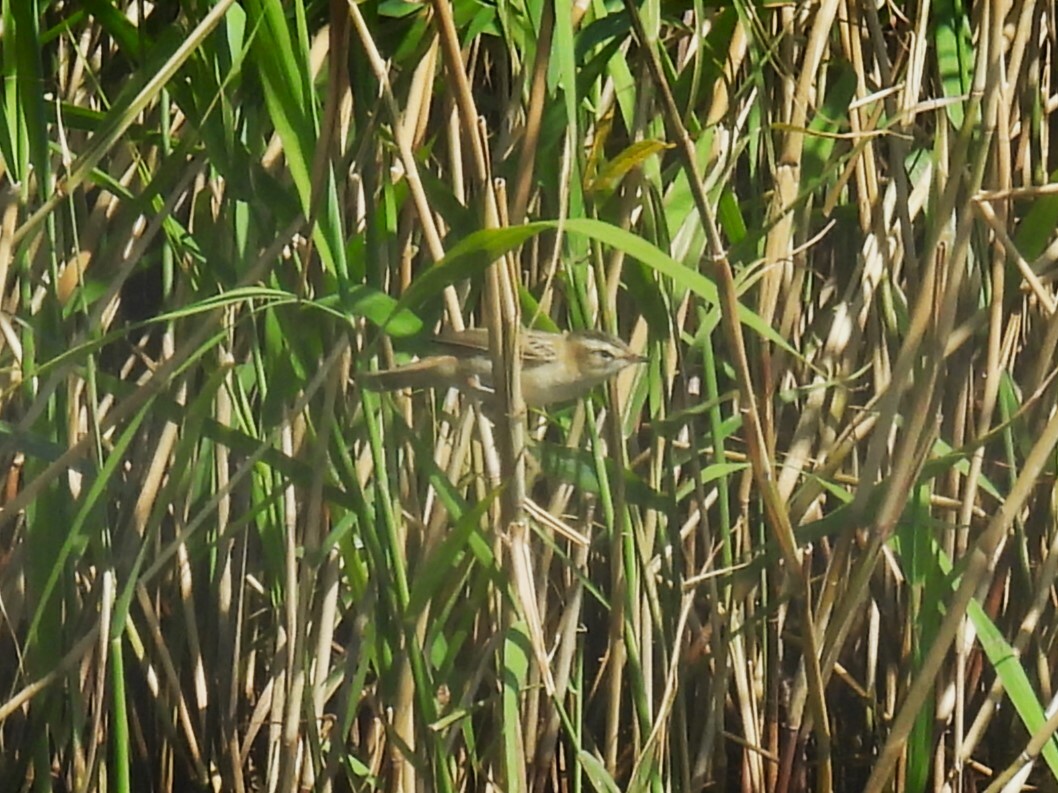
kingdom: Animalia
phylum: Chordata
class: Aves
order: Passeriformes
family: Acrocephalidae
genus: Acrocephalus
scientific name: Acrocephalus schoenobaenus
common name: Sedge warbler
